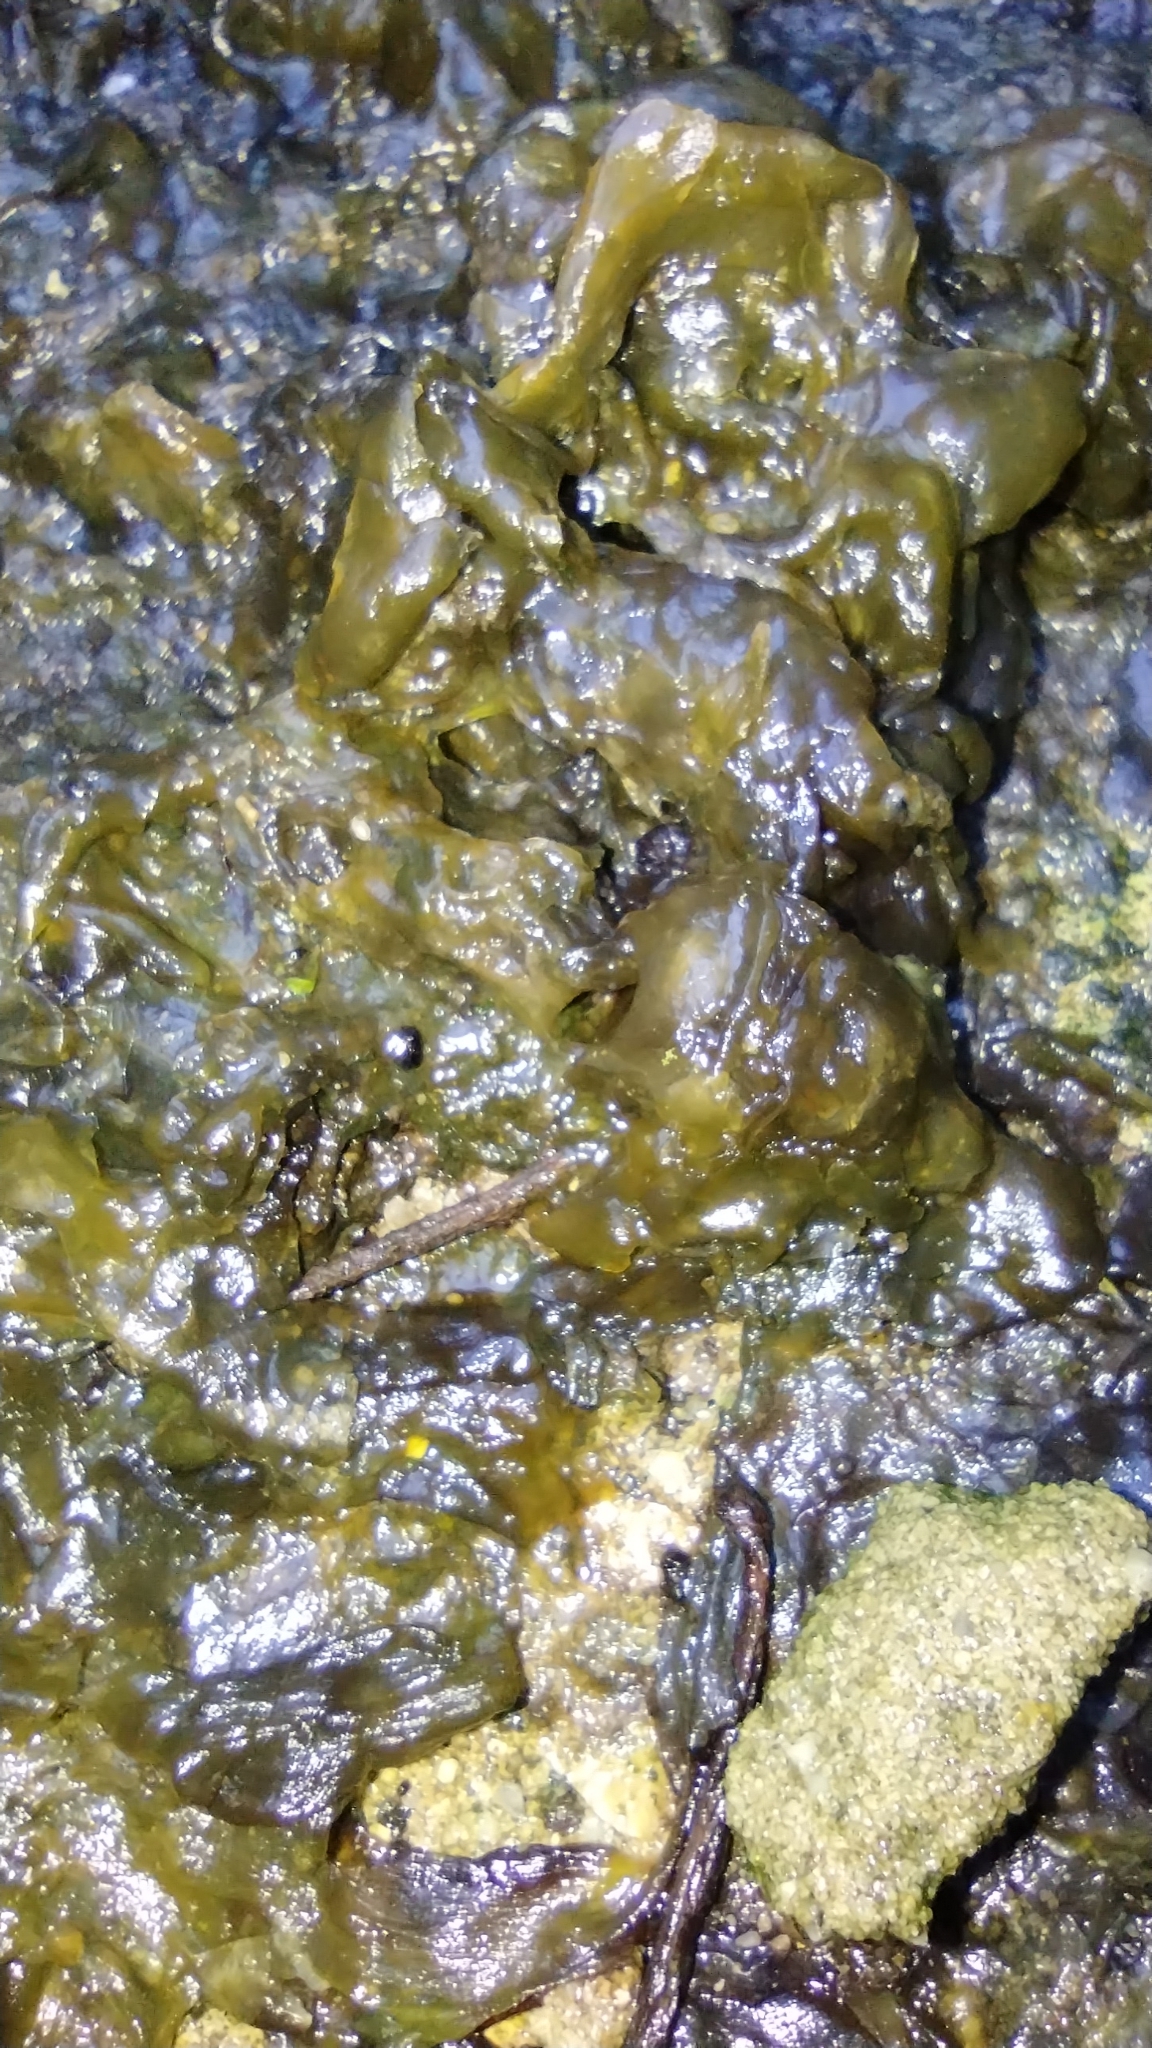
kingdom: Bacteria
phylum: Cyanobacteria
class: Cyanobacteriia
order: Cyanobacteriales
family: Nostocaceae
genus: Nostoc
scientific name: Nostoc commune
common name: Star jelly
